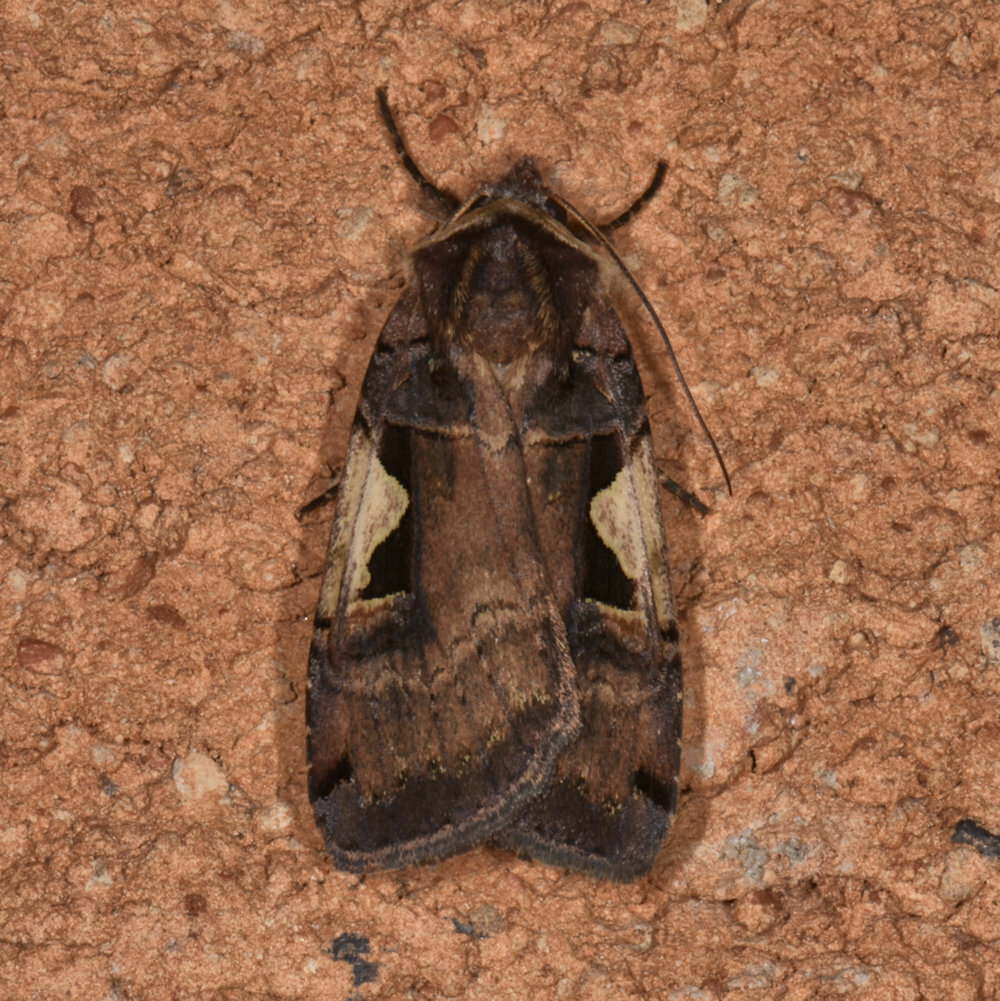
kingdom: Animalia
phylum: Arthropoda
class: Insecta
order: Lepidoptera
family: Noctuidae
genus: Xestia
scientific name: Xestia
